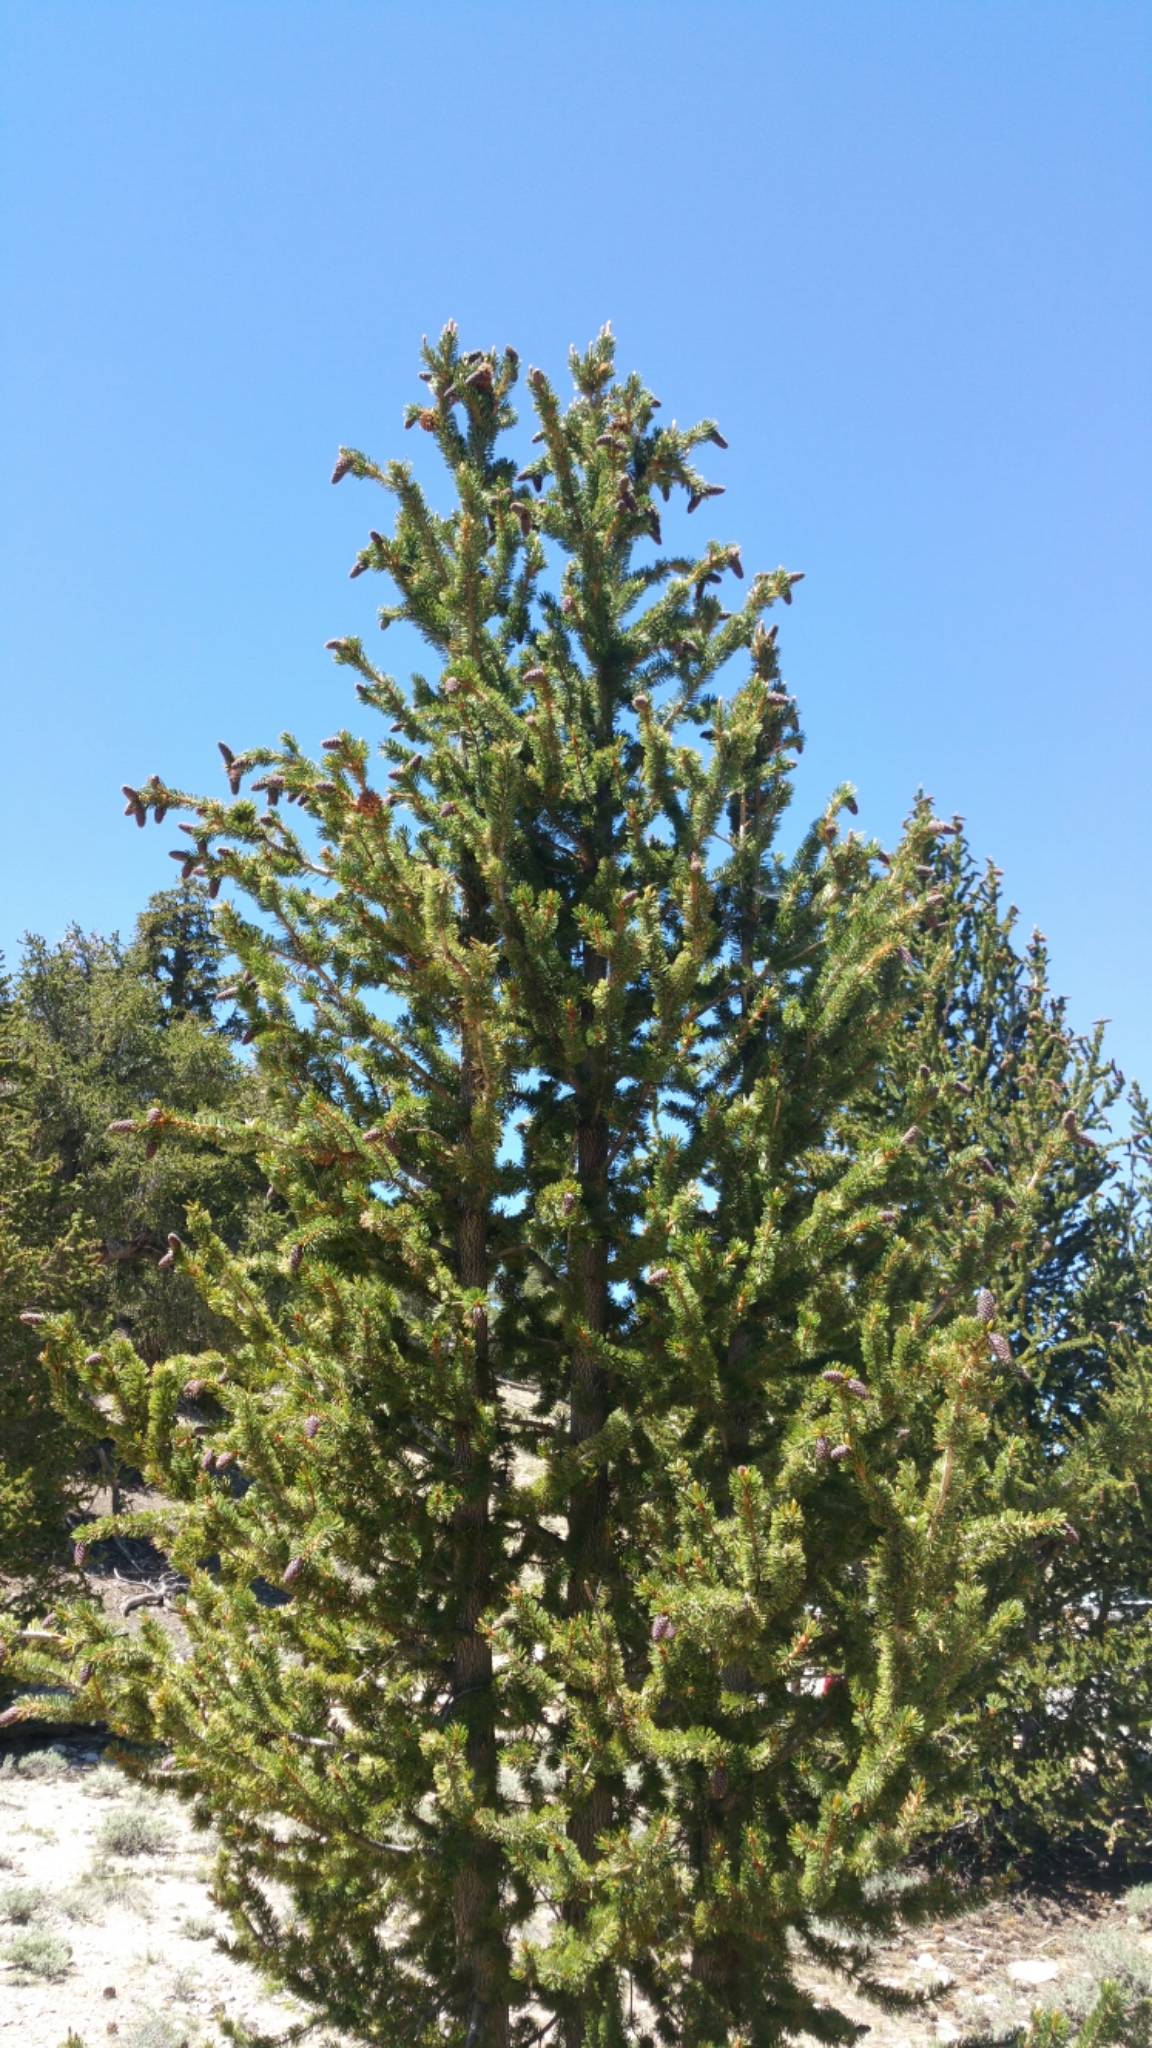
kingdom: Plantae
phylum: Tracheophyta
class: Pinopsida
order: Pinales
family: Pinaceae
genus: Pinus
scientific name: Pinus longaeva
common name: Intermountain bristlecone pine
